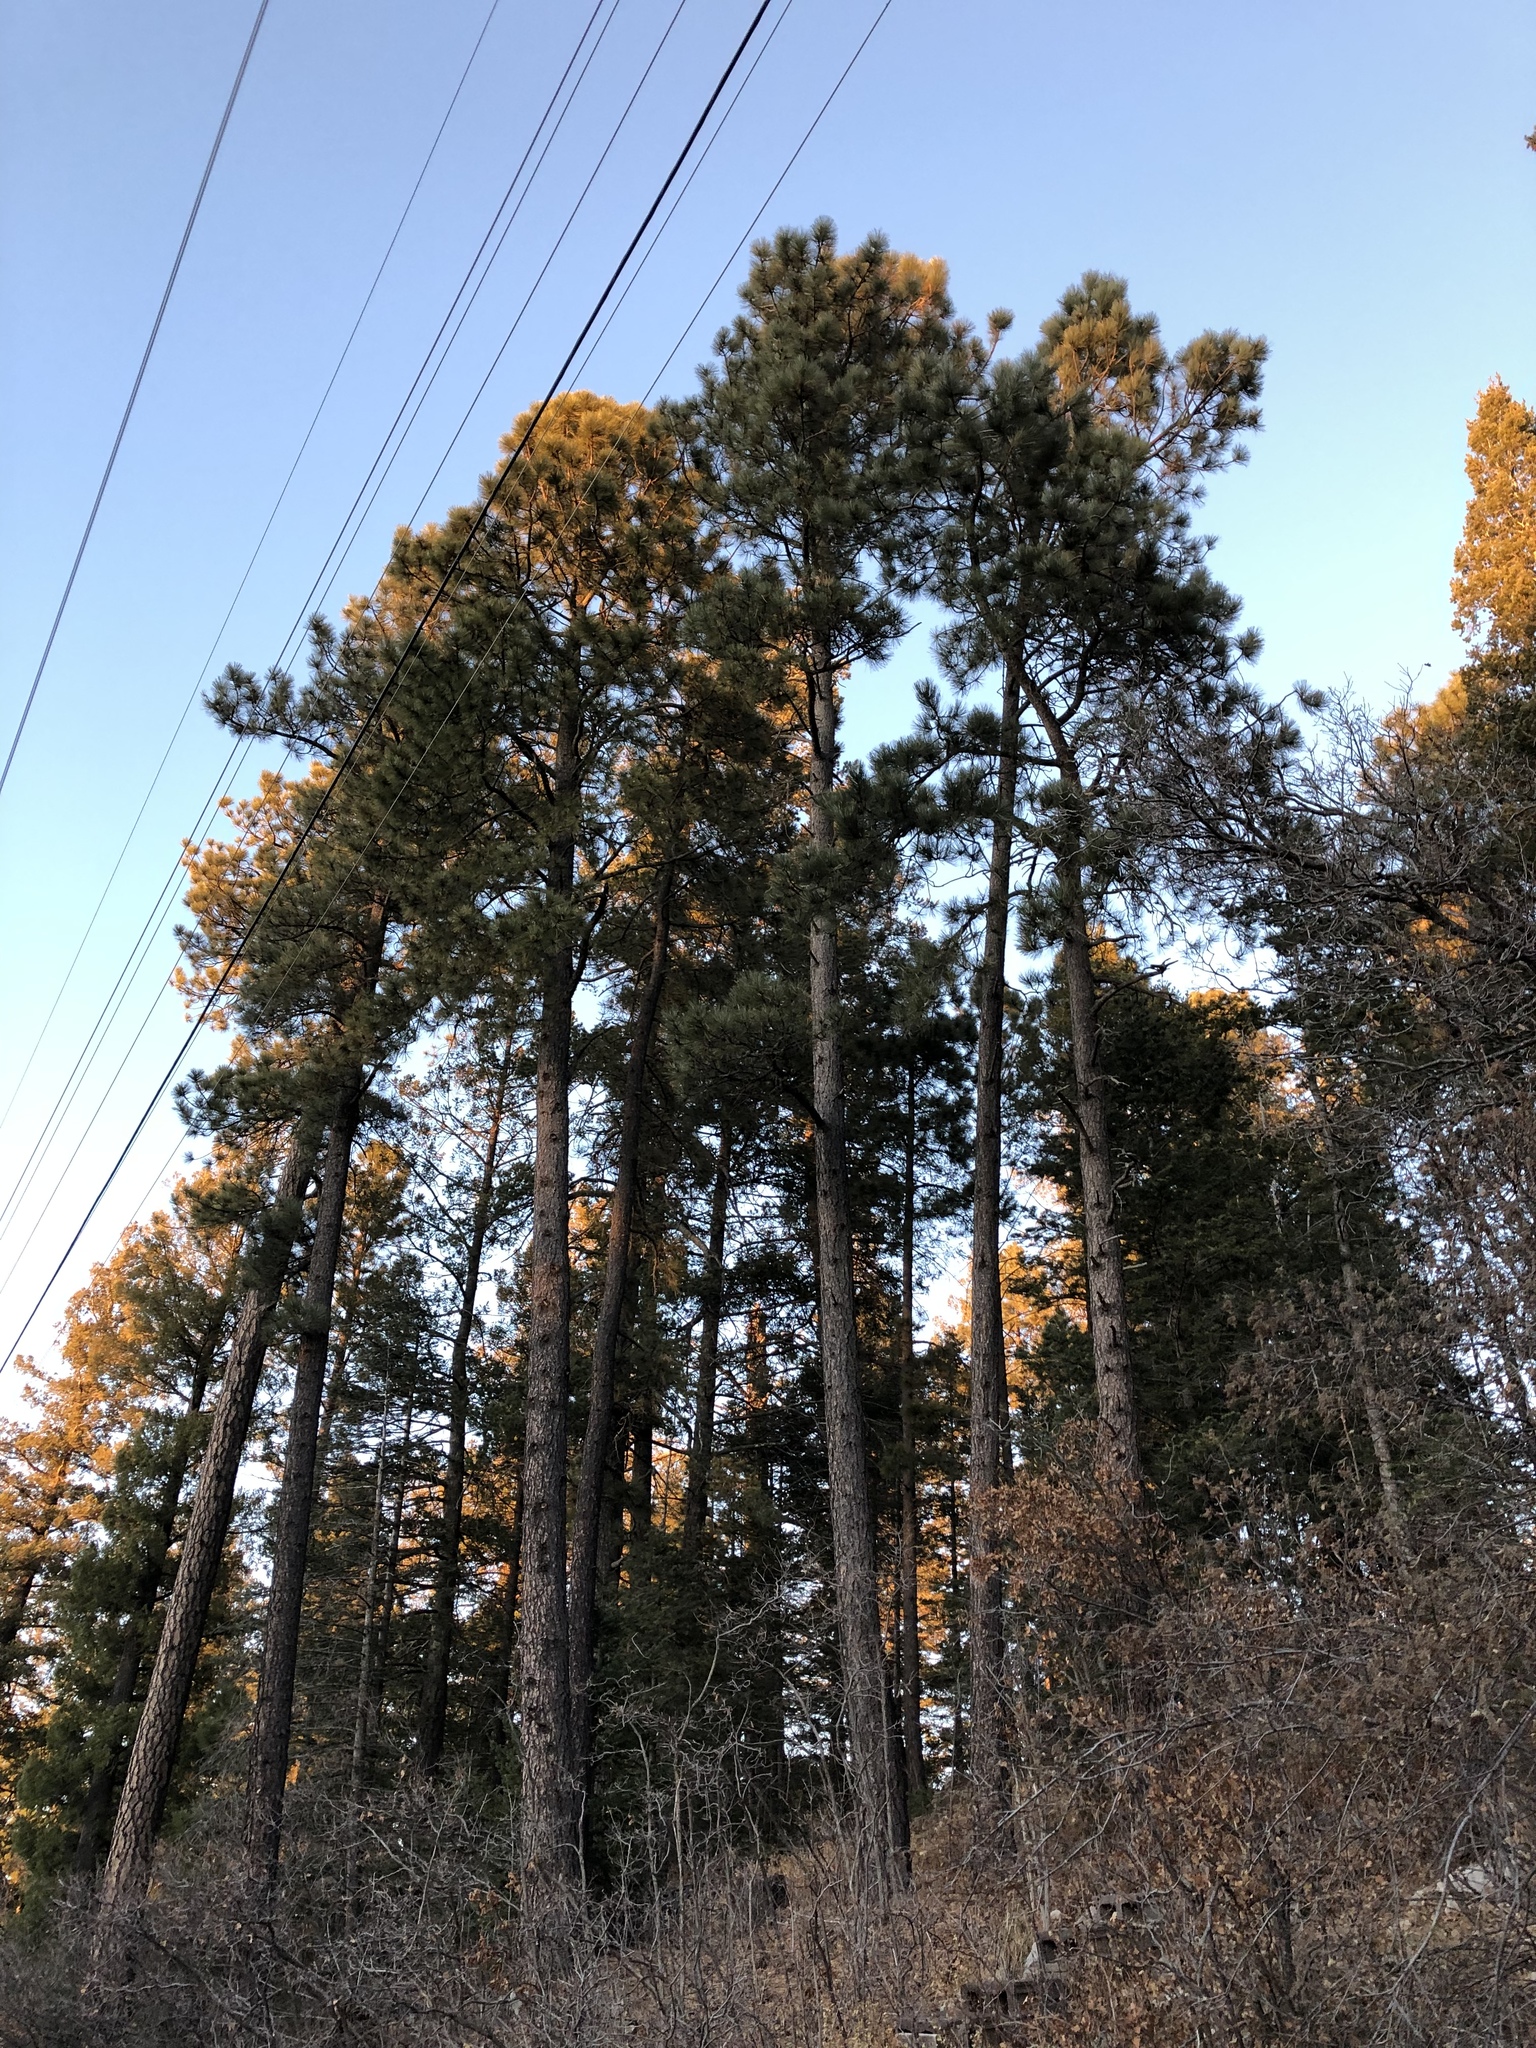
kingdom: Plantae
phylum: Tracheophyta
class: Pinopsida
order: Pinales
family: Pinaceae
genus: Pinus
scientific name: Pinus ponderosa
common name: Western yellow-pine
